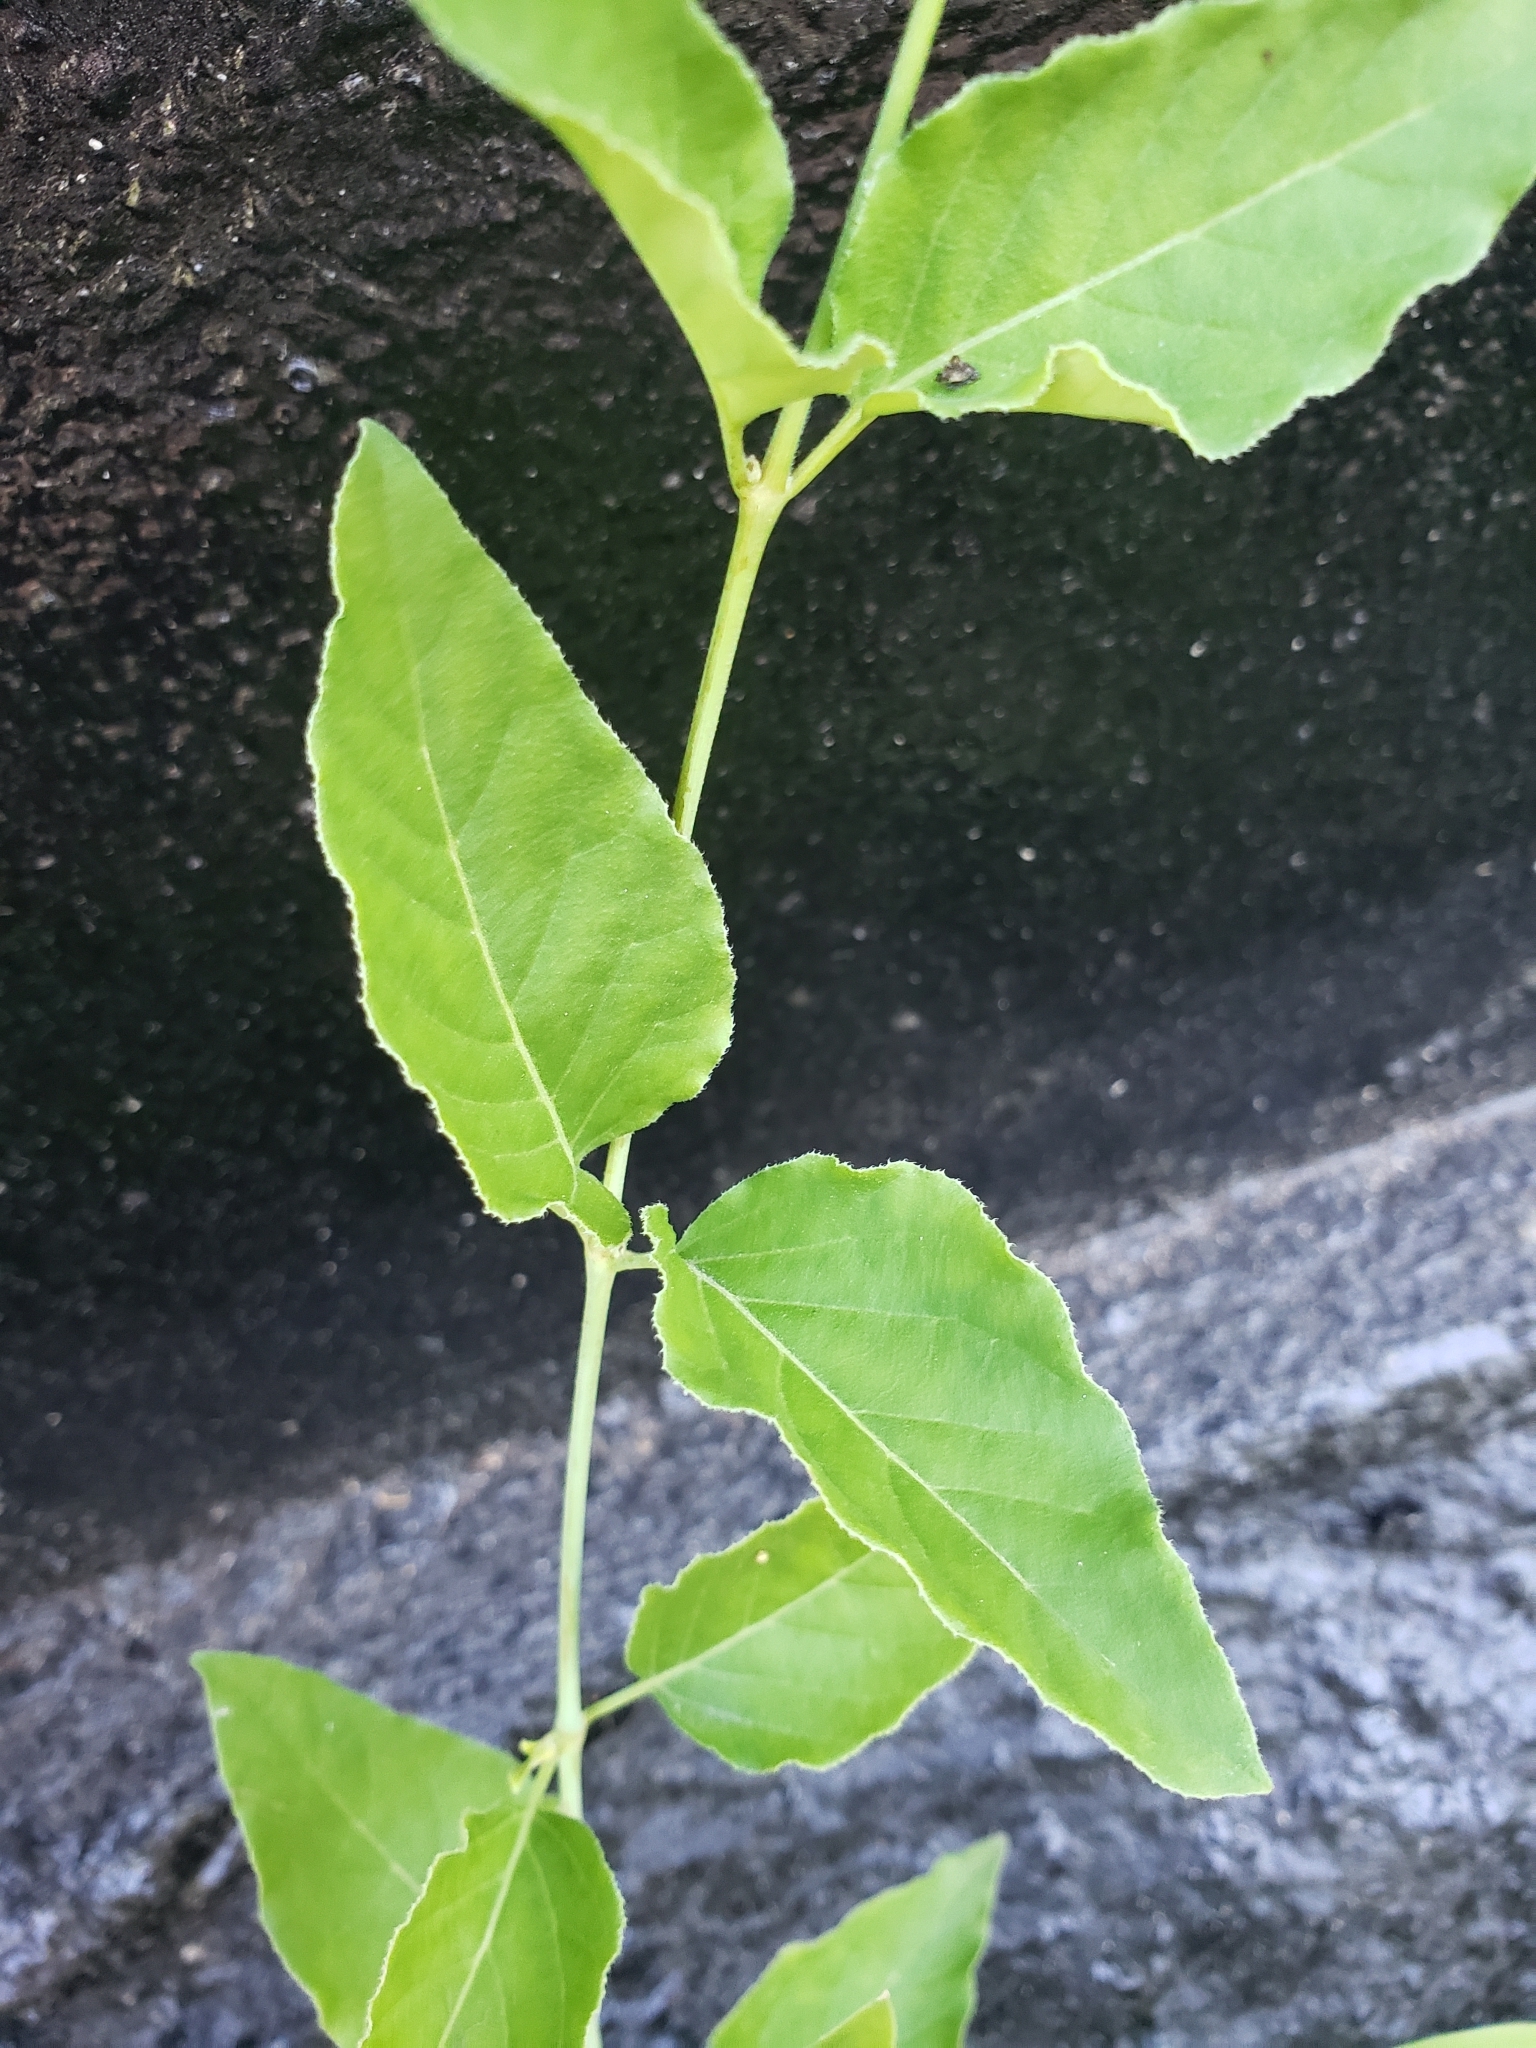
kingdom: Plantae
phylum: Tracheophyta
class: Magnoliopsida
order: Caryophyllales
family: Nyctaginaceae
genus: Mirabilis
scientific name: Mirabilis nyctaginea
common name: Umbrella wort
